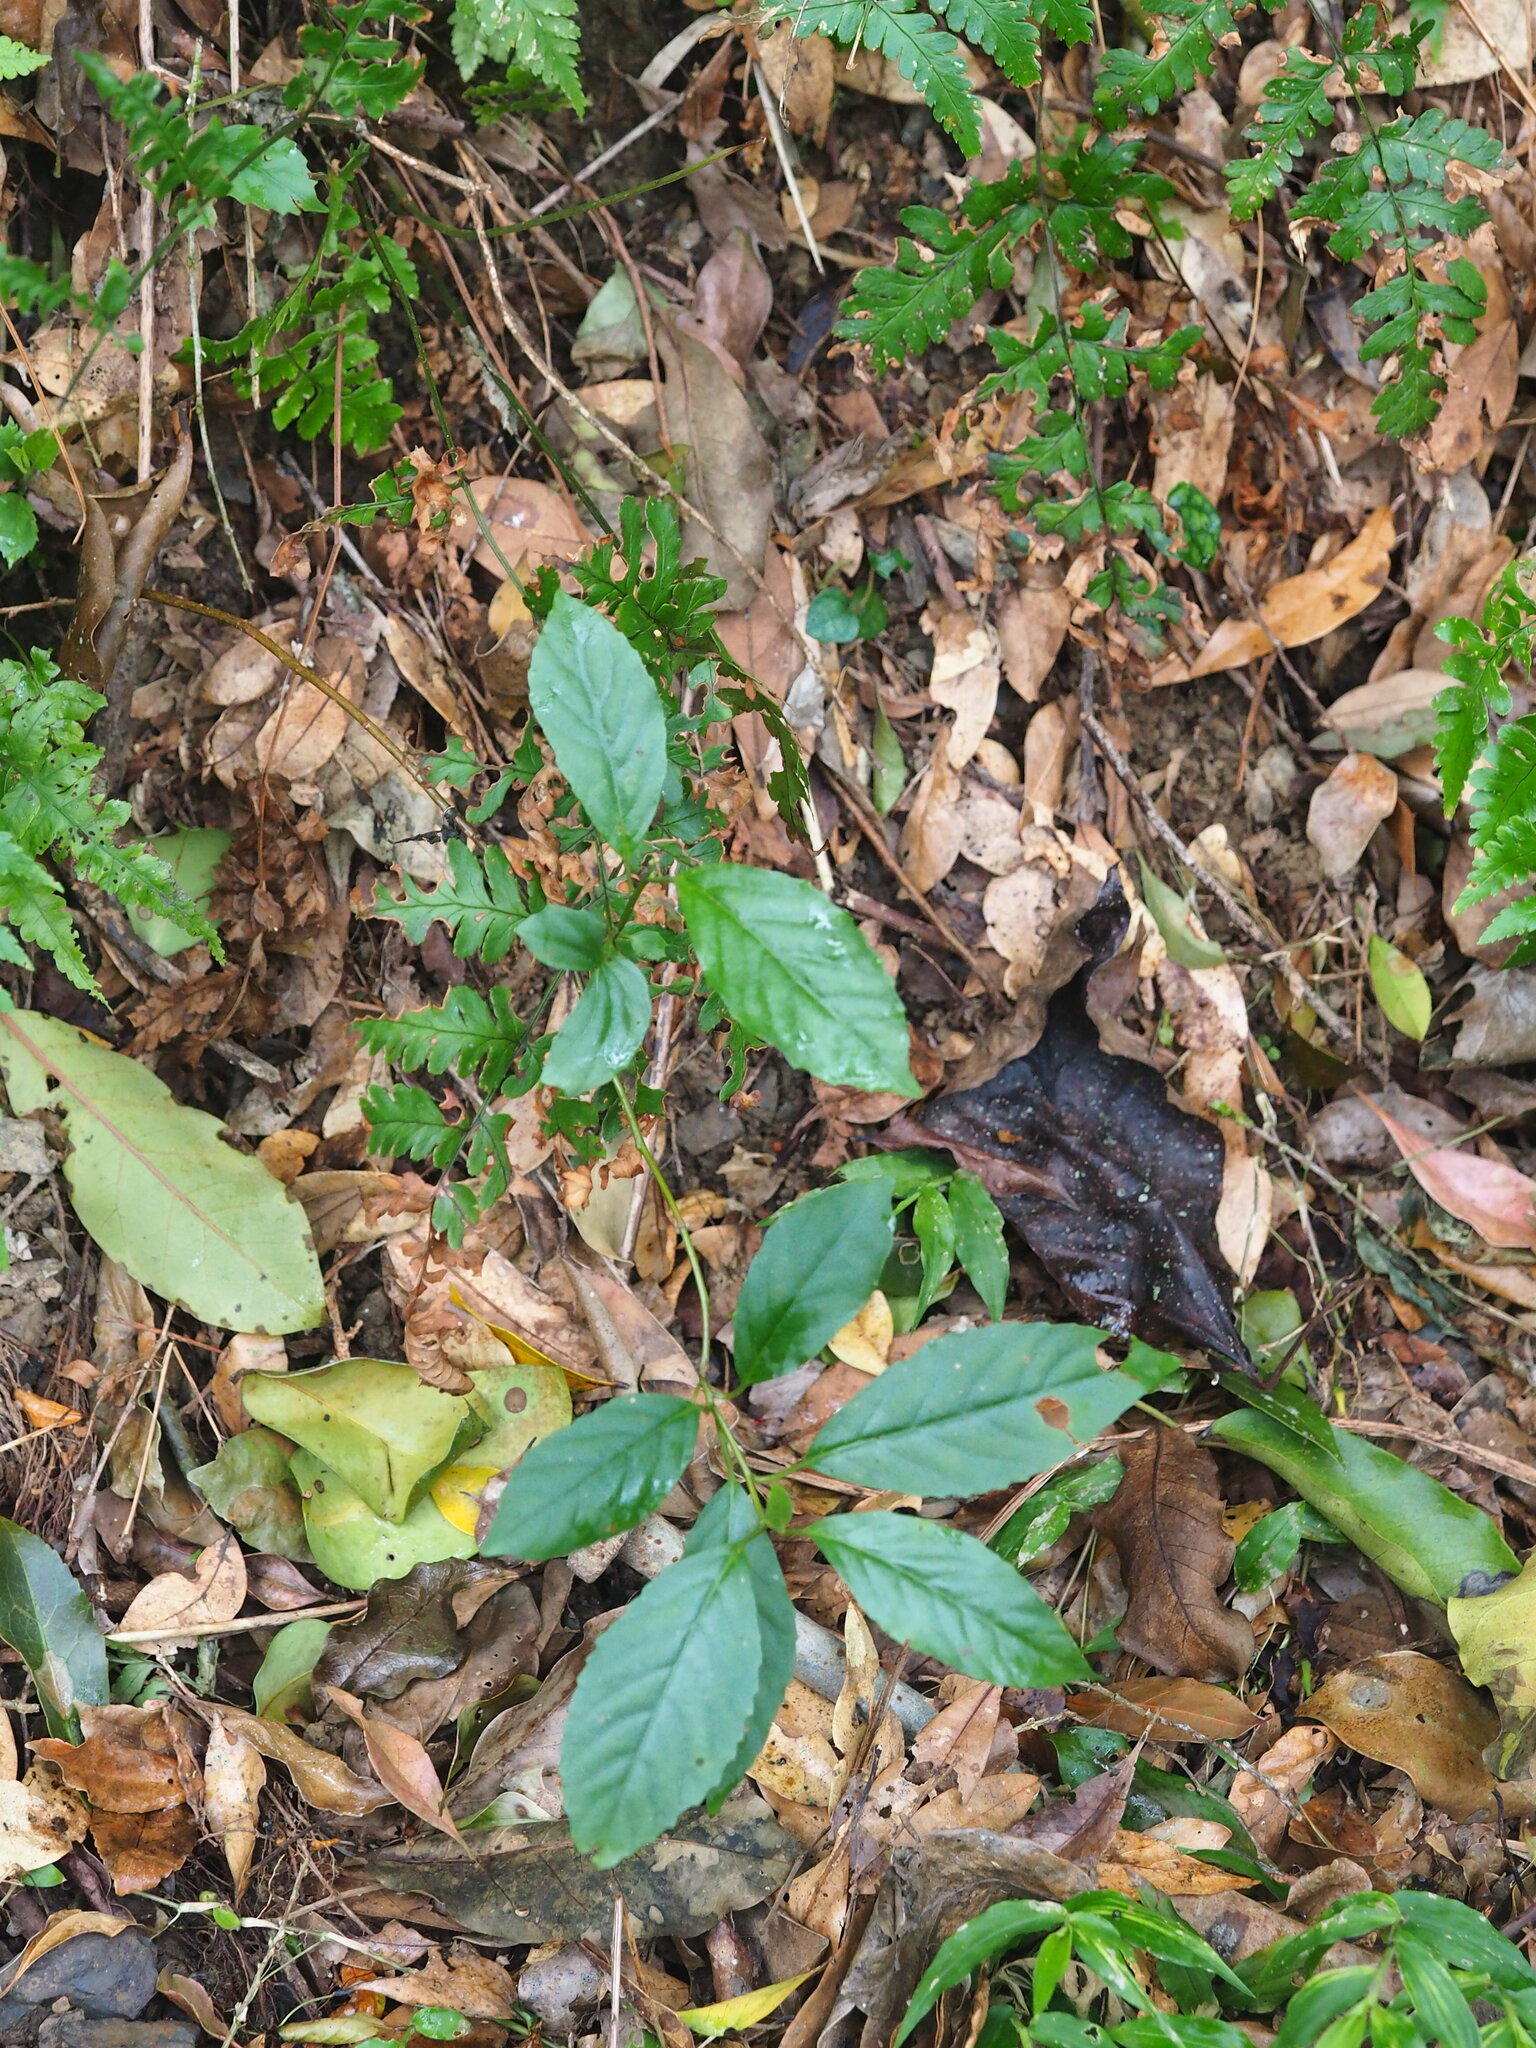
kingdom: Plantae
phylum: Tracheophyta
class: Magnoliopsida
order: Ericales
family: Primulaceae
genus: Maesa
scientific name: Maesa perlaria
